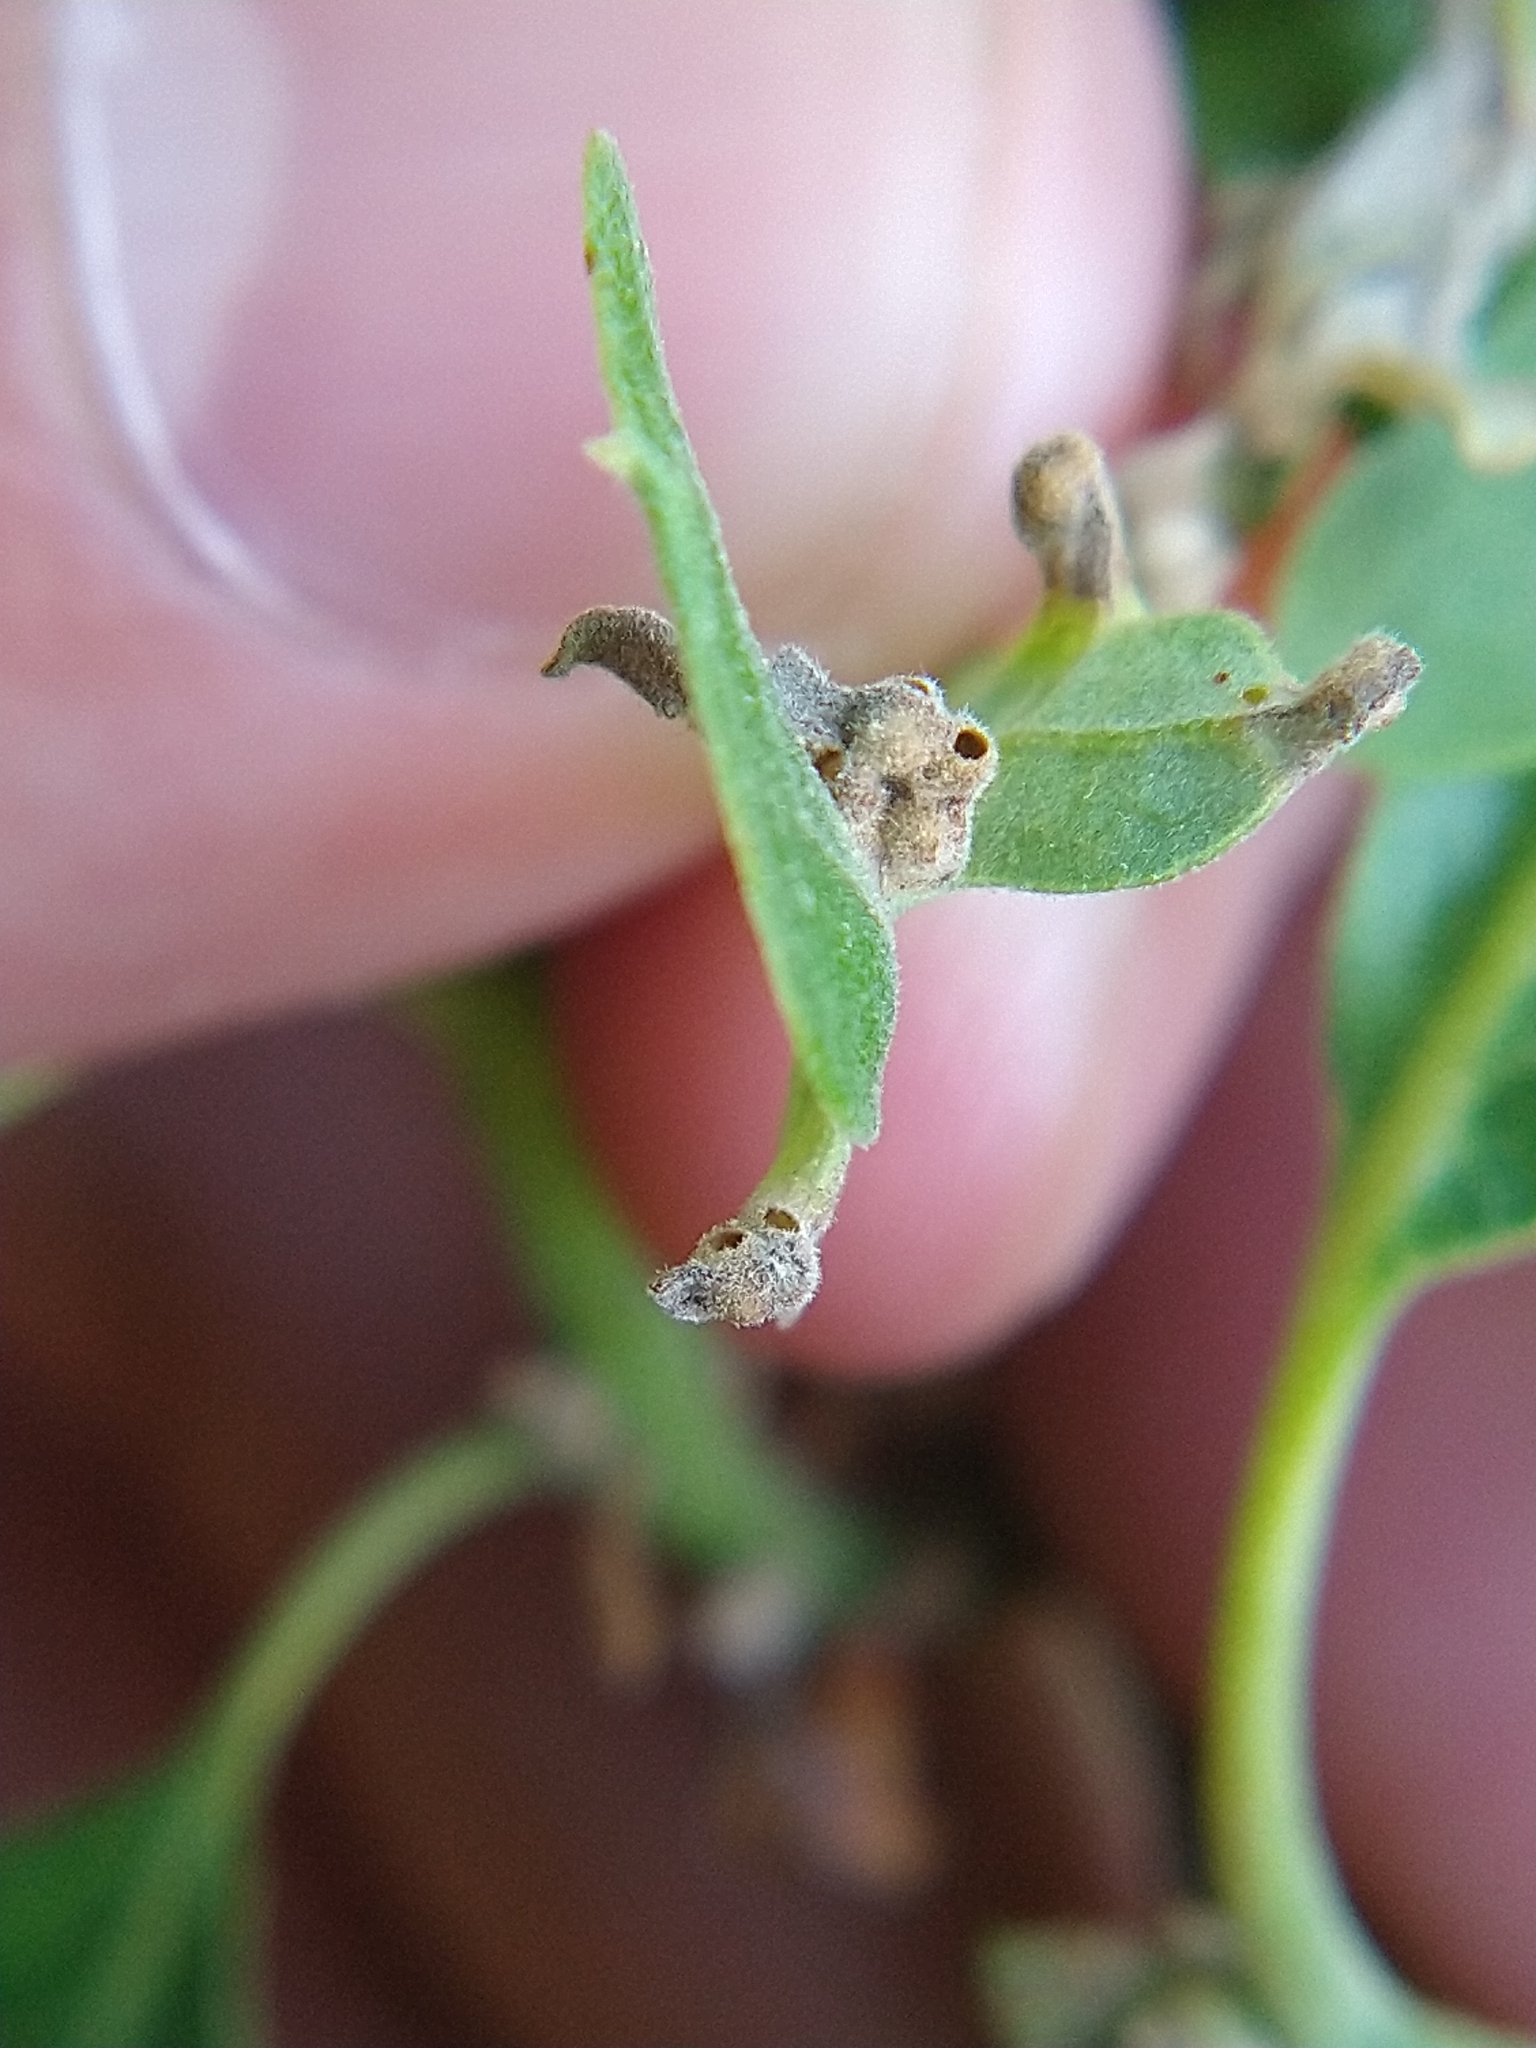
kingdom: Animalia
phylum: Arthropoda
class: Insecta
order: Hymenoptera
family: Cynipidae
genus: Neuroterus
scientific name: Neuroterus saltarius
